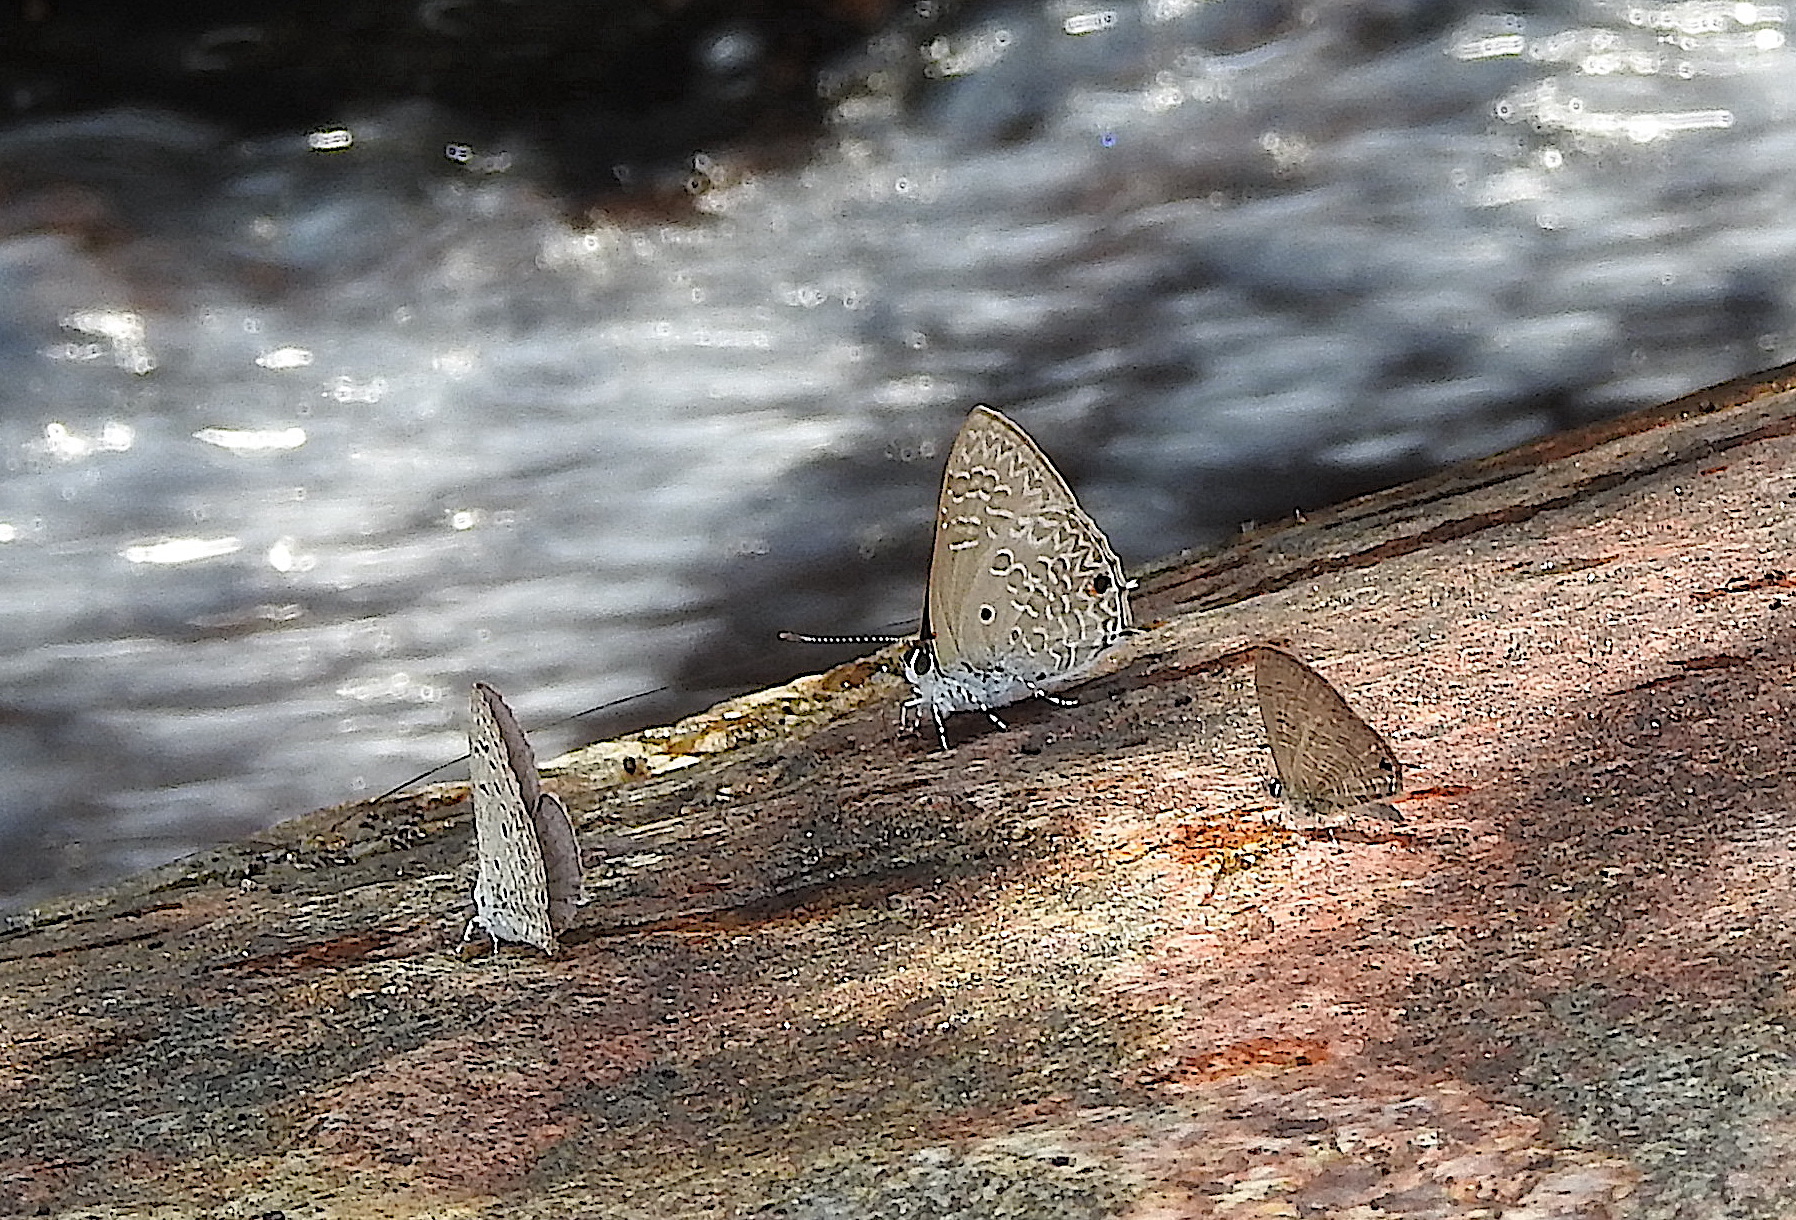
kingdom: Animalia
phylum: Arthropoda
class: Insecta
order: Lepidoptera
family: Lycaenidae
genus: Anthene
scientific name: Anthene lycaenina
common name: Pointed ciliate blue
